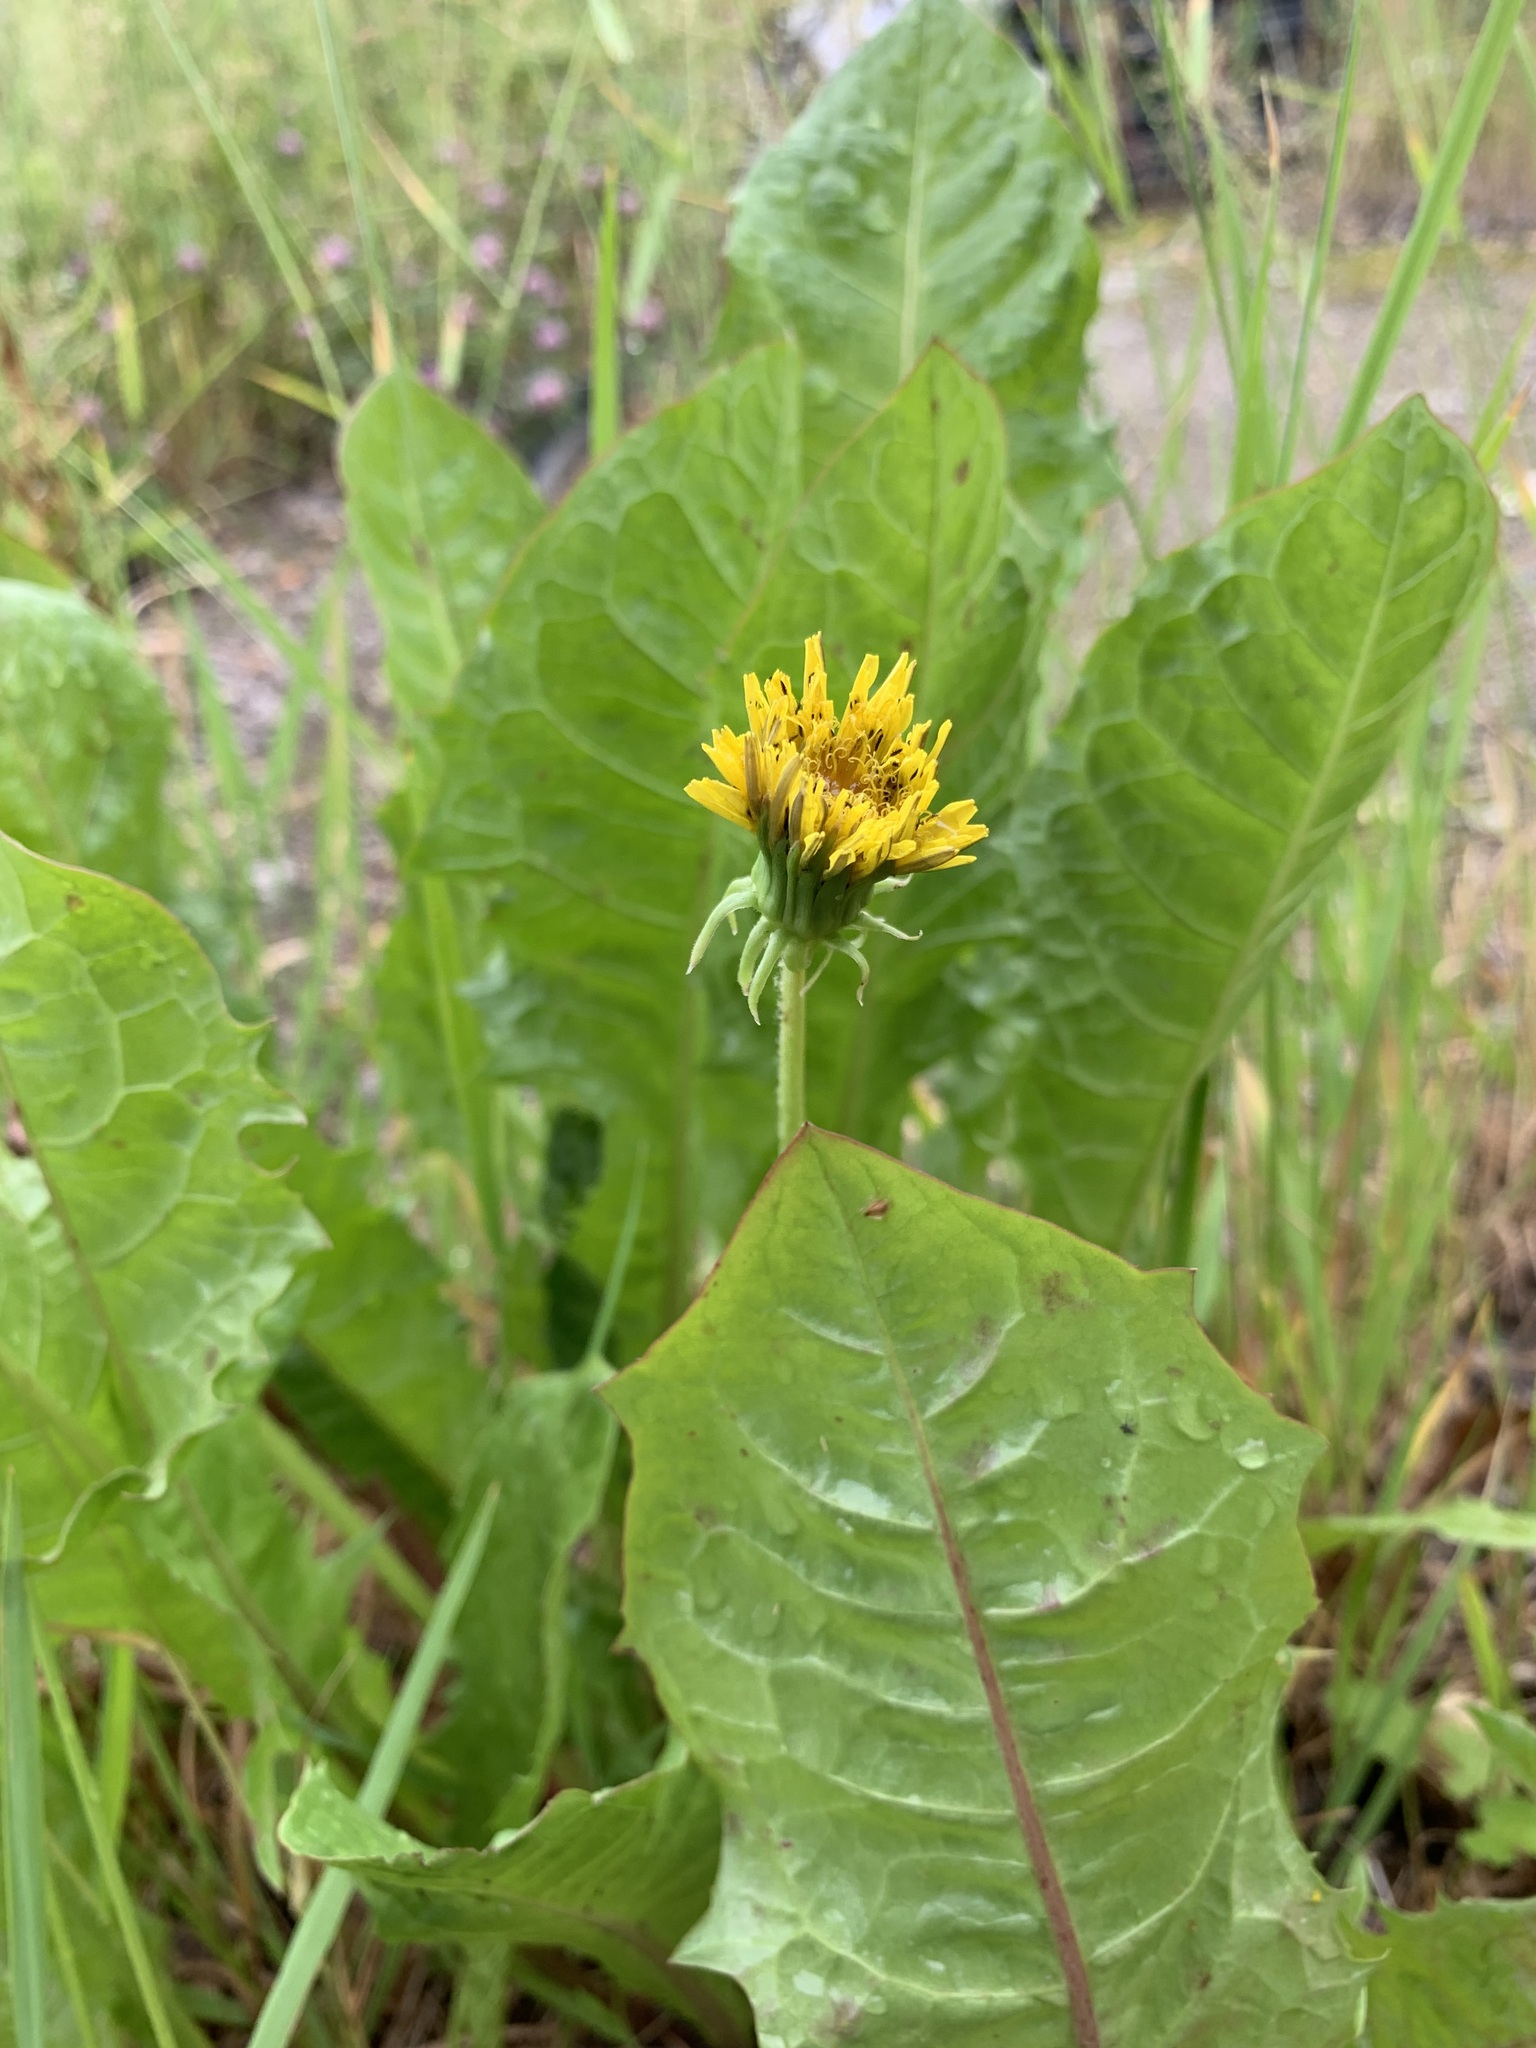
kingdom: Plantae
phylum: Tracheophyta
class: Magnoliopsida
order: Asterales
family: Asteraceae
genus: Taraxacum
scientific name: Taraxacum officinale
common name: Common dandelion
